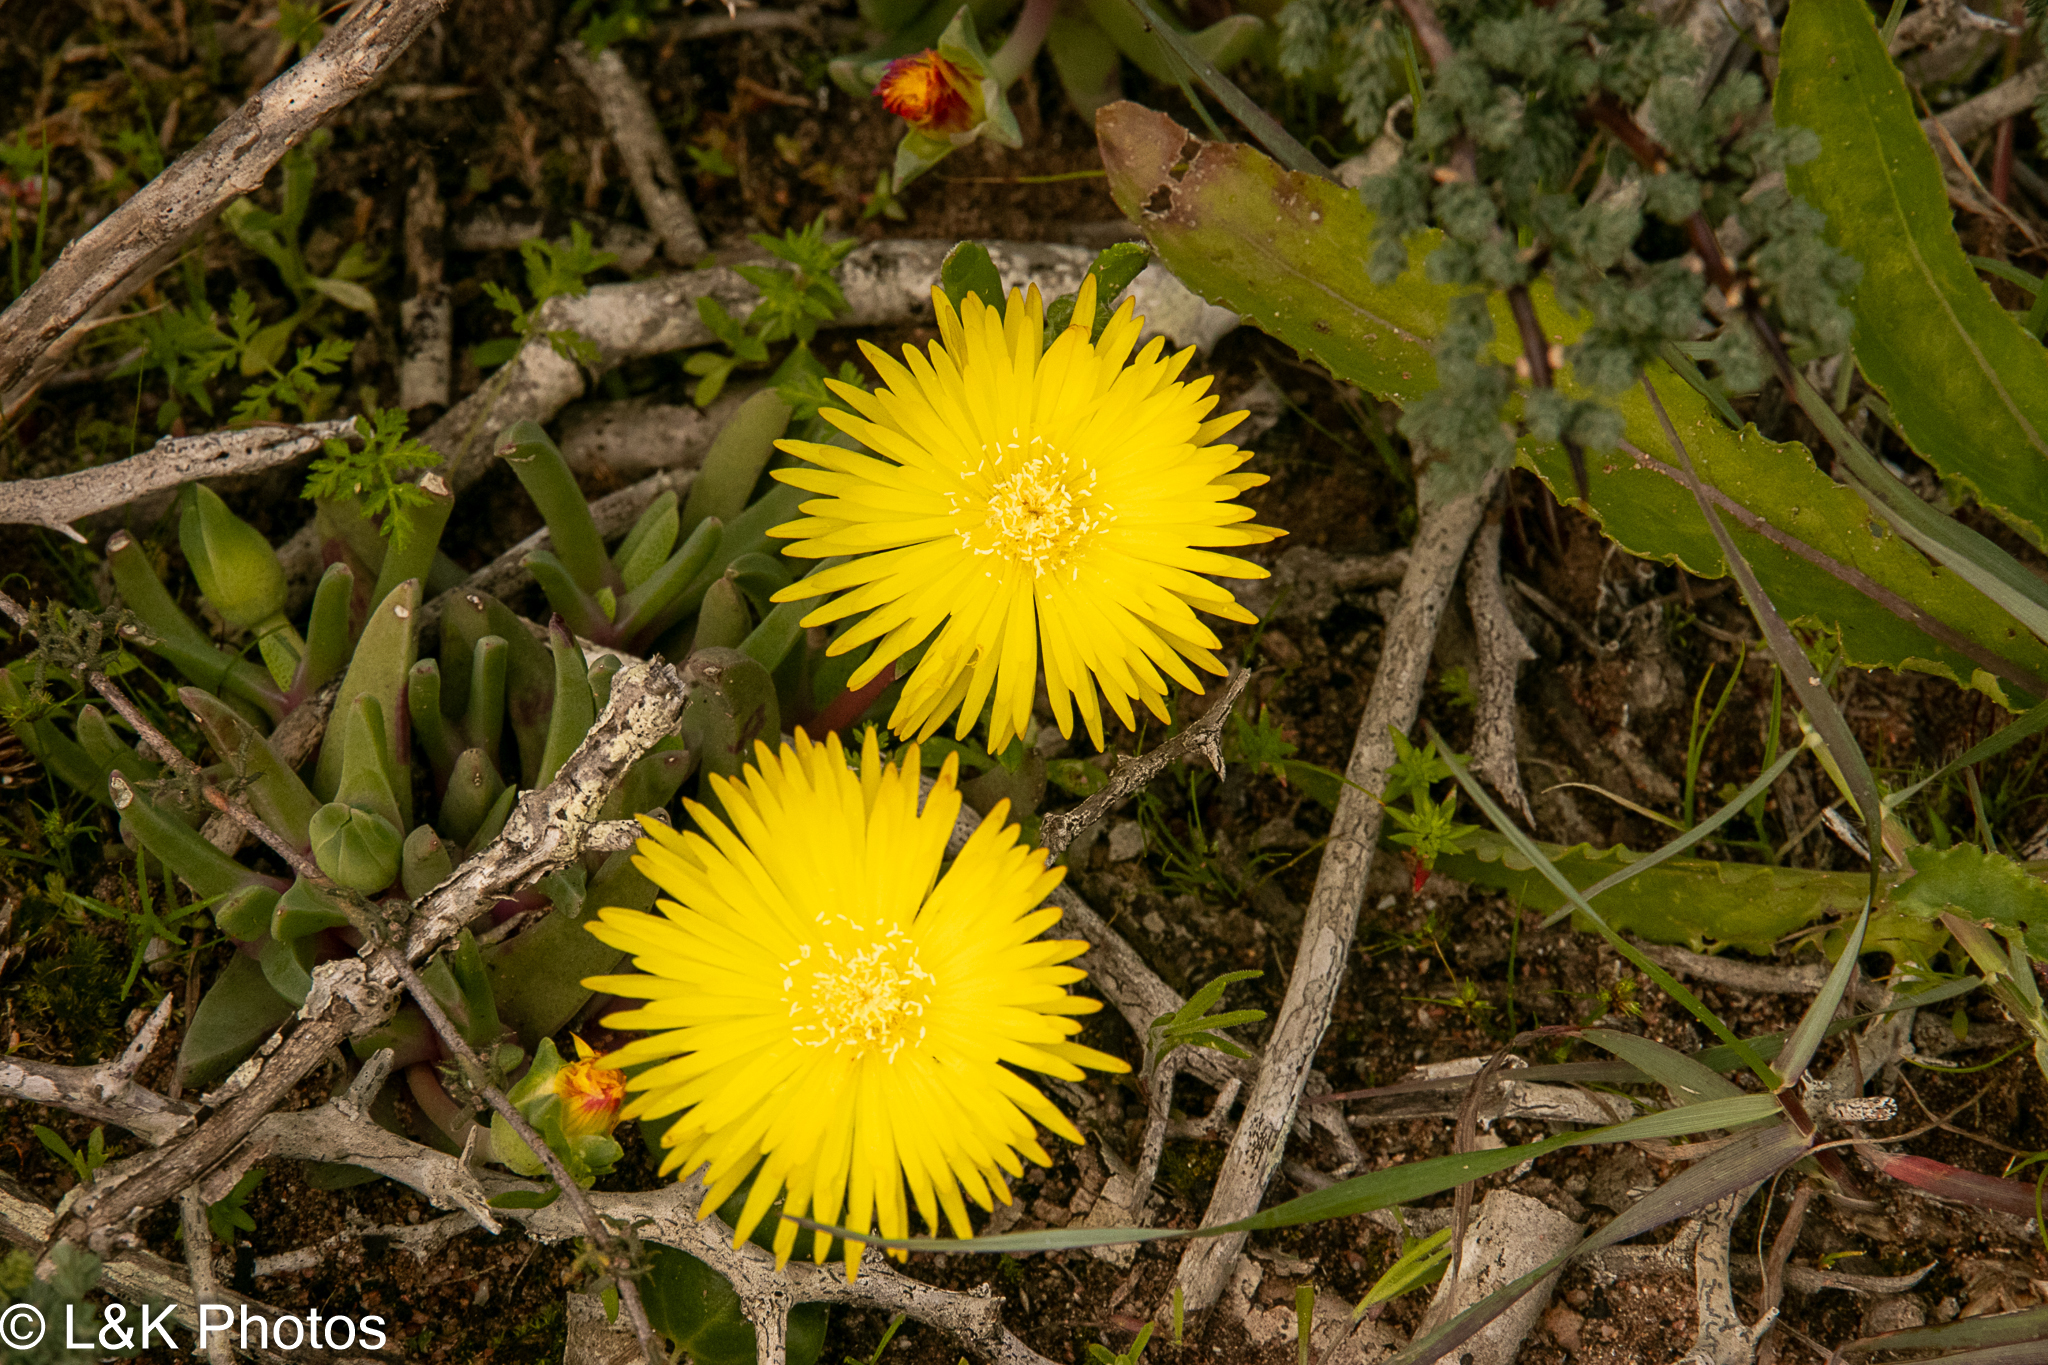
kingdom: Plantae
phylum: Tracheophyta
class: Magnoliopsida
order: Caryophyllales
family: Aizoaceae
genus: Cheiridopsis
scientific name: Cheiridopsis rostrata
